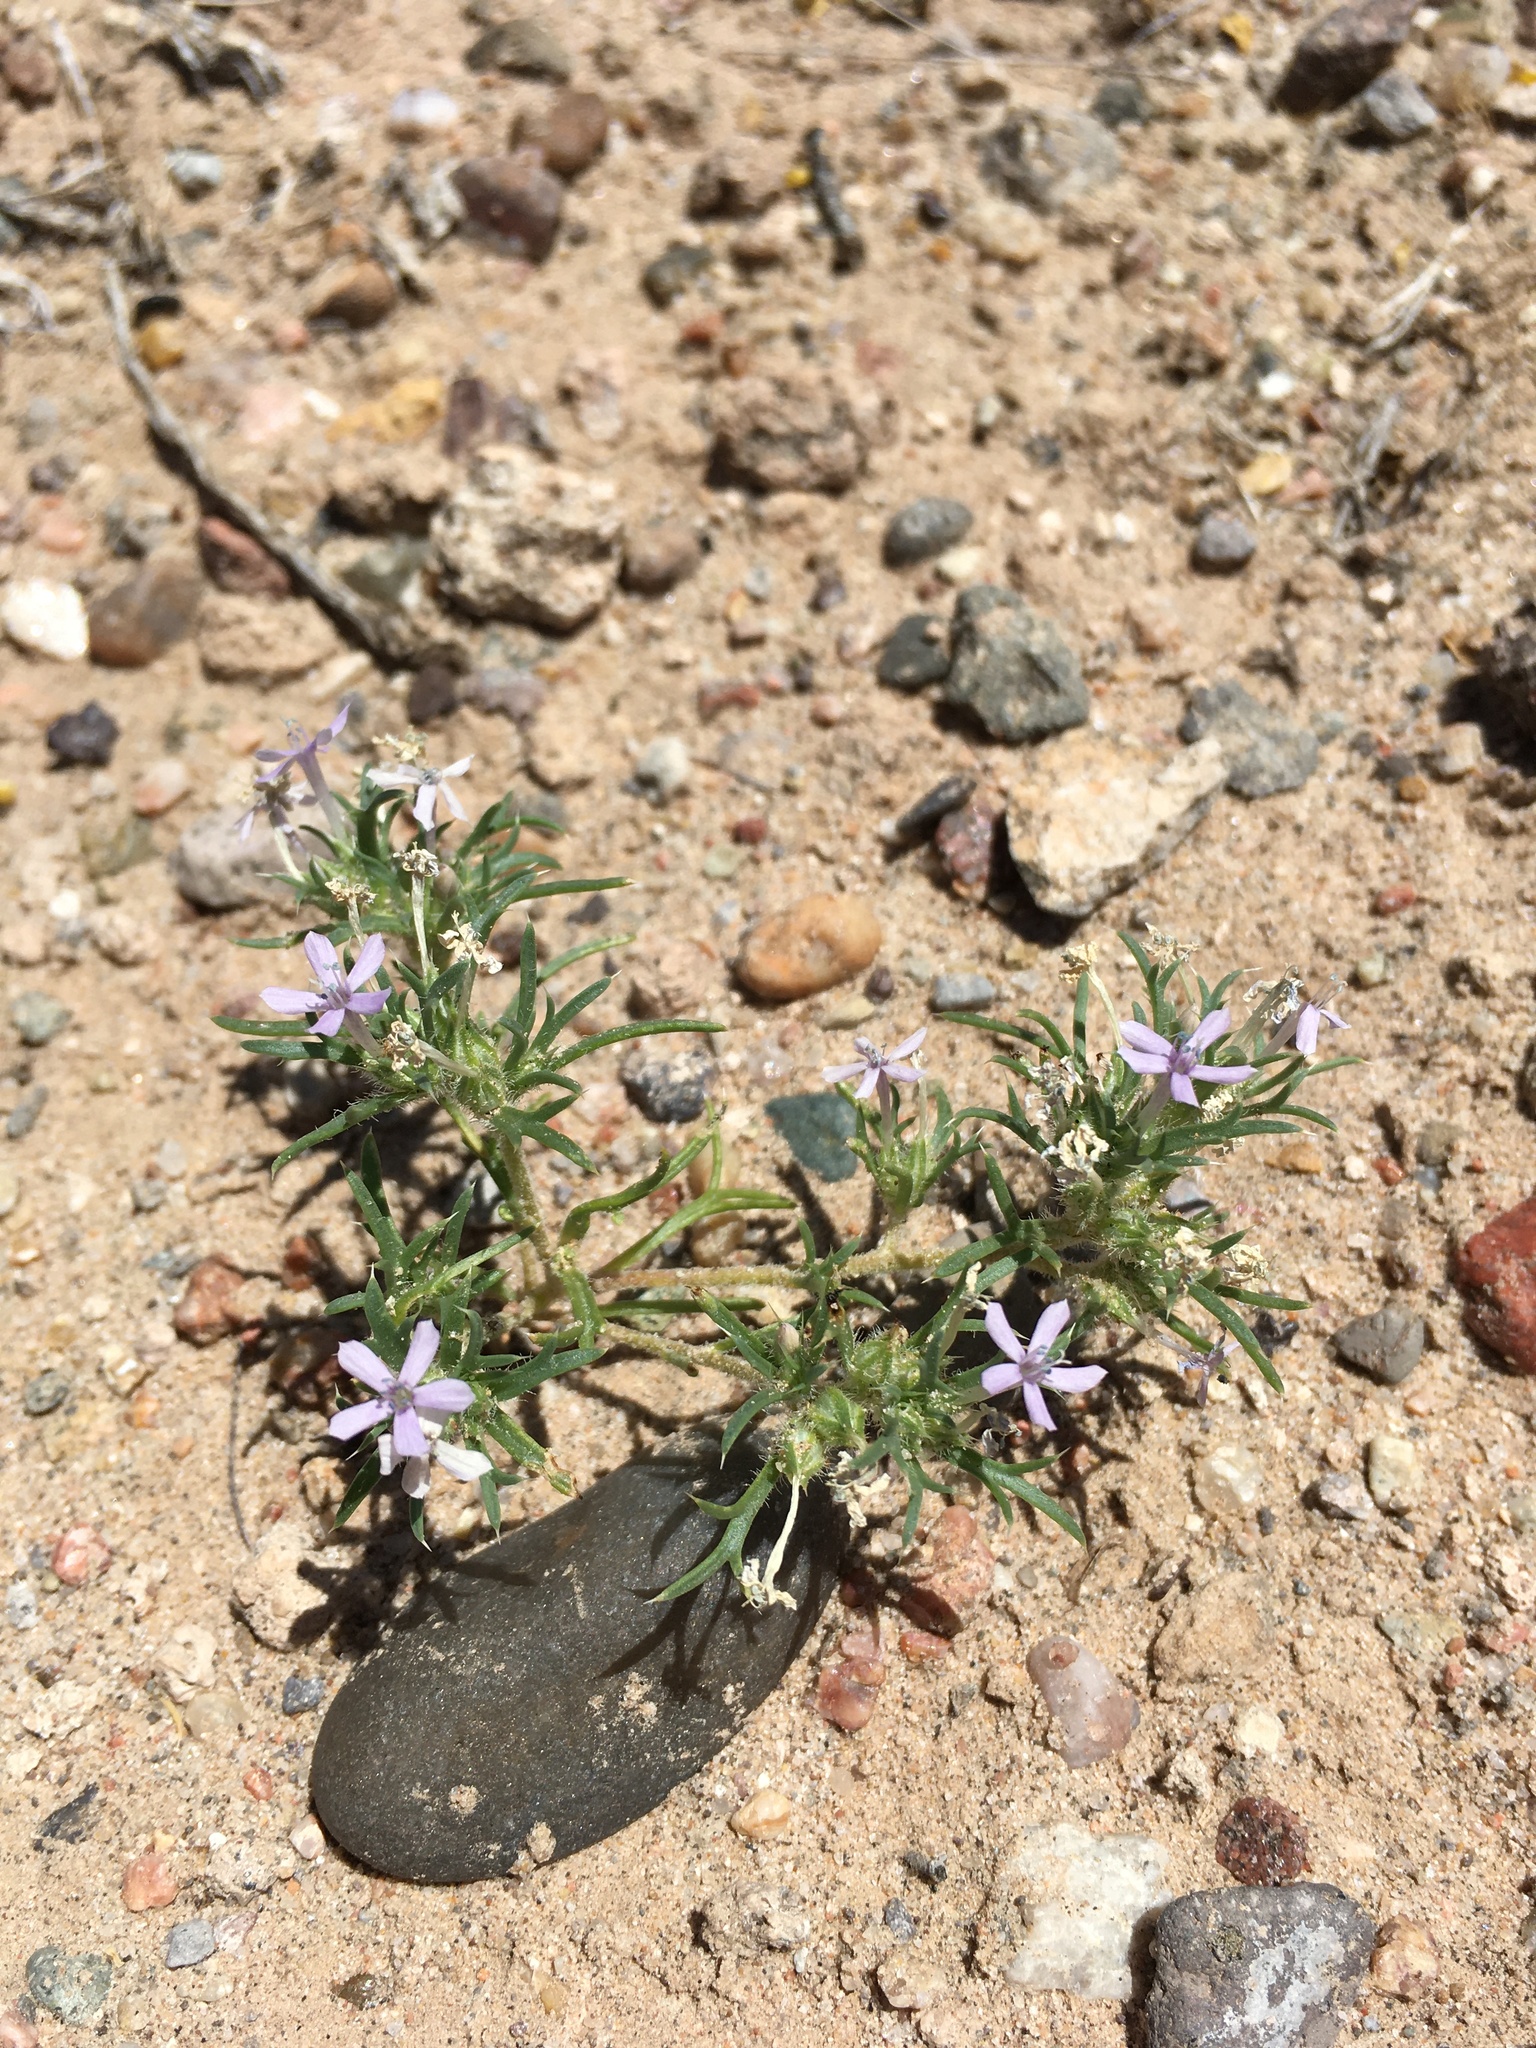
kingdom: Plantae
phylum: Tracheophyta
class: Magnoliopsida
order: Ericales
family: Polemoniaceae
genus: Ipomopsis
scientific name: Ipomopsis pumila
